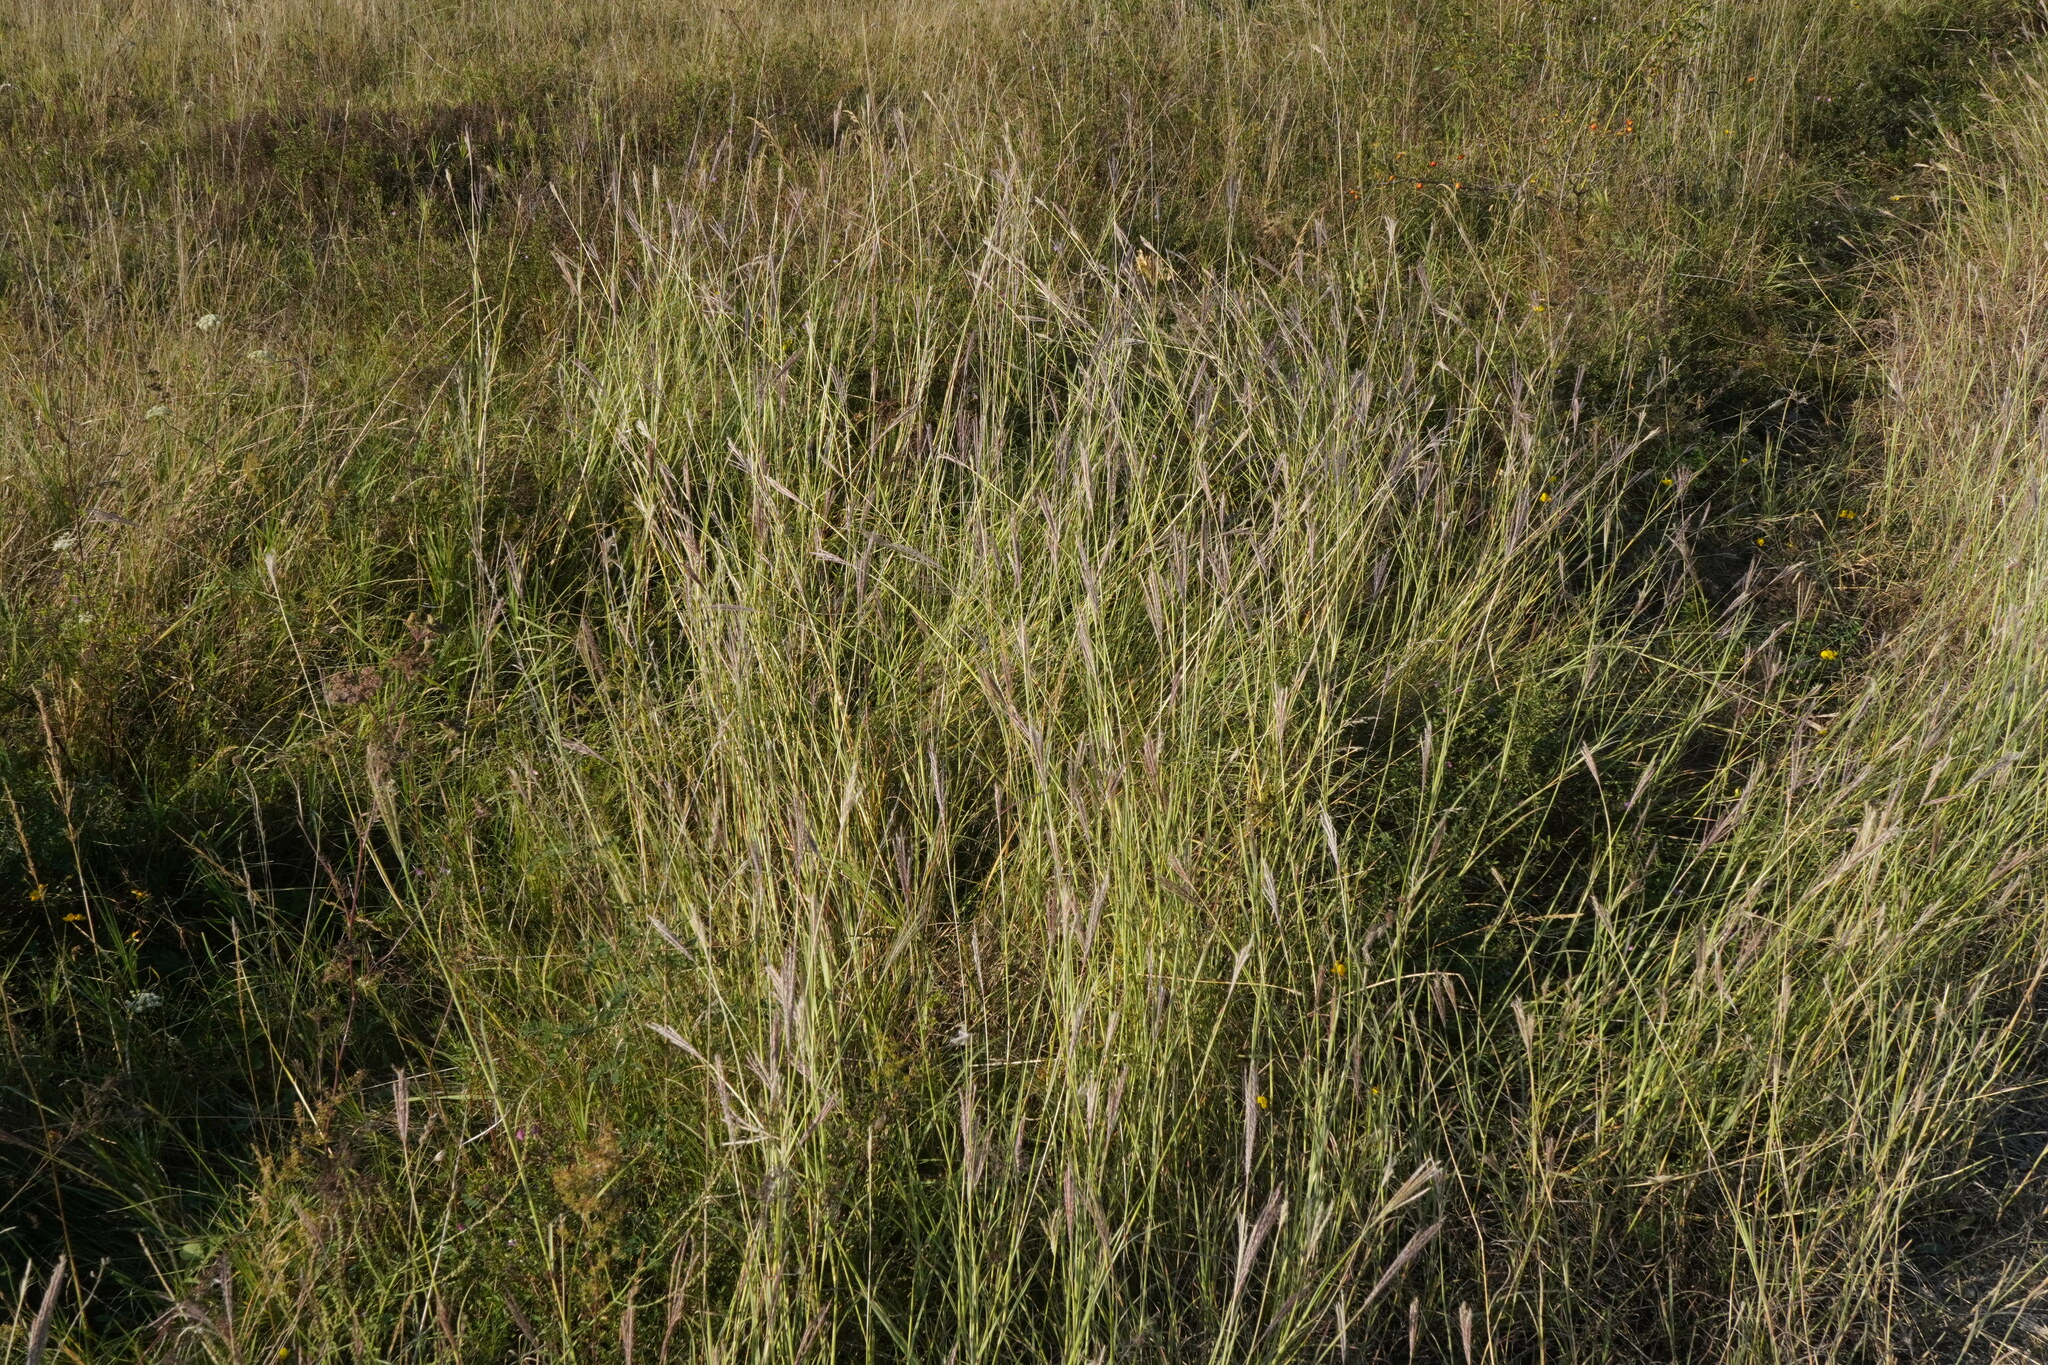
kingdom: Plantae
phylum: Tracheophyta
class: Liliopsida
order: Poales
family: Poaceae
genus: Bothriochloa
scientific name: Bothriochloa ischaemum
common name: Yellow bluestem
